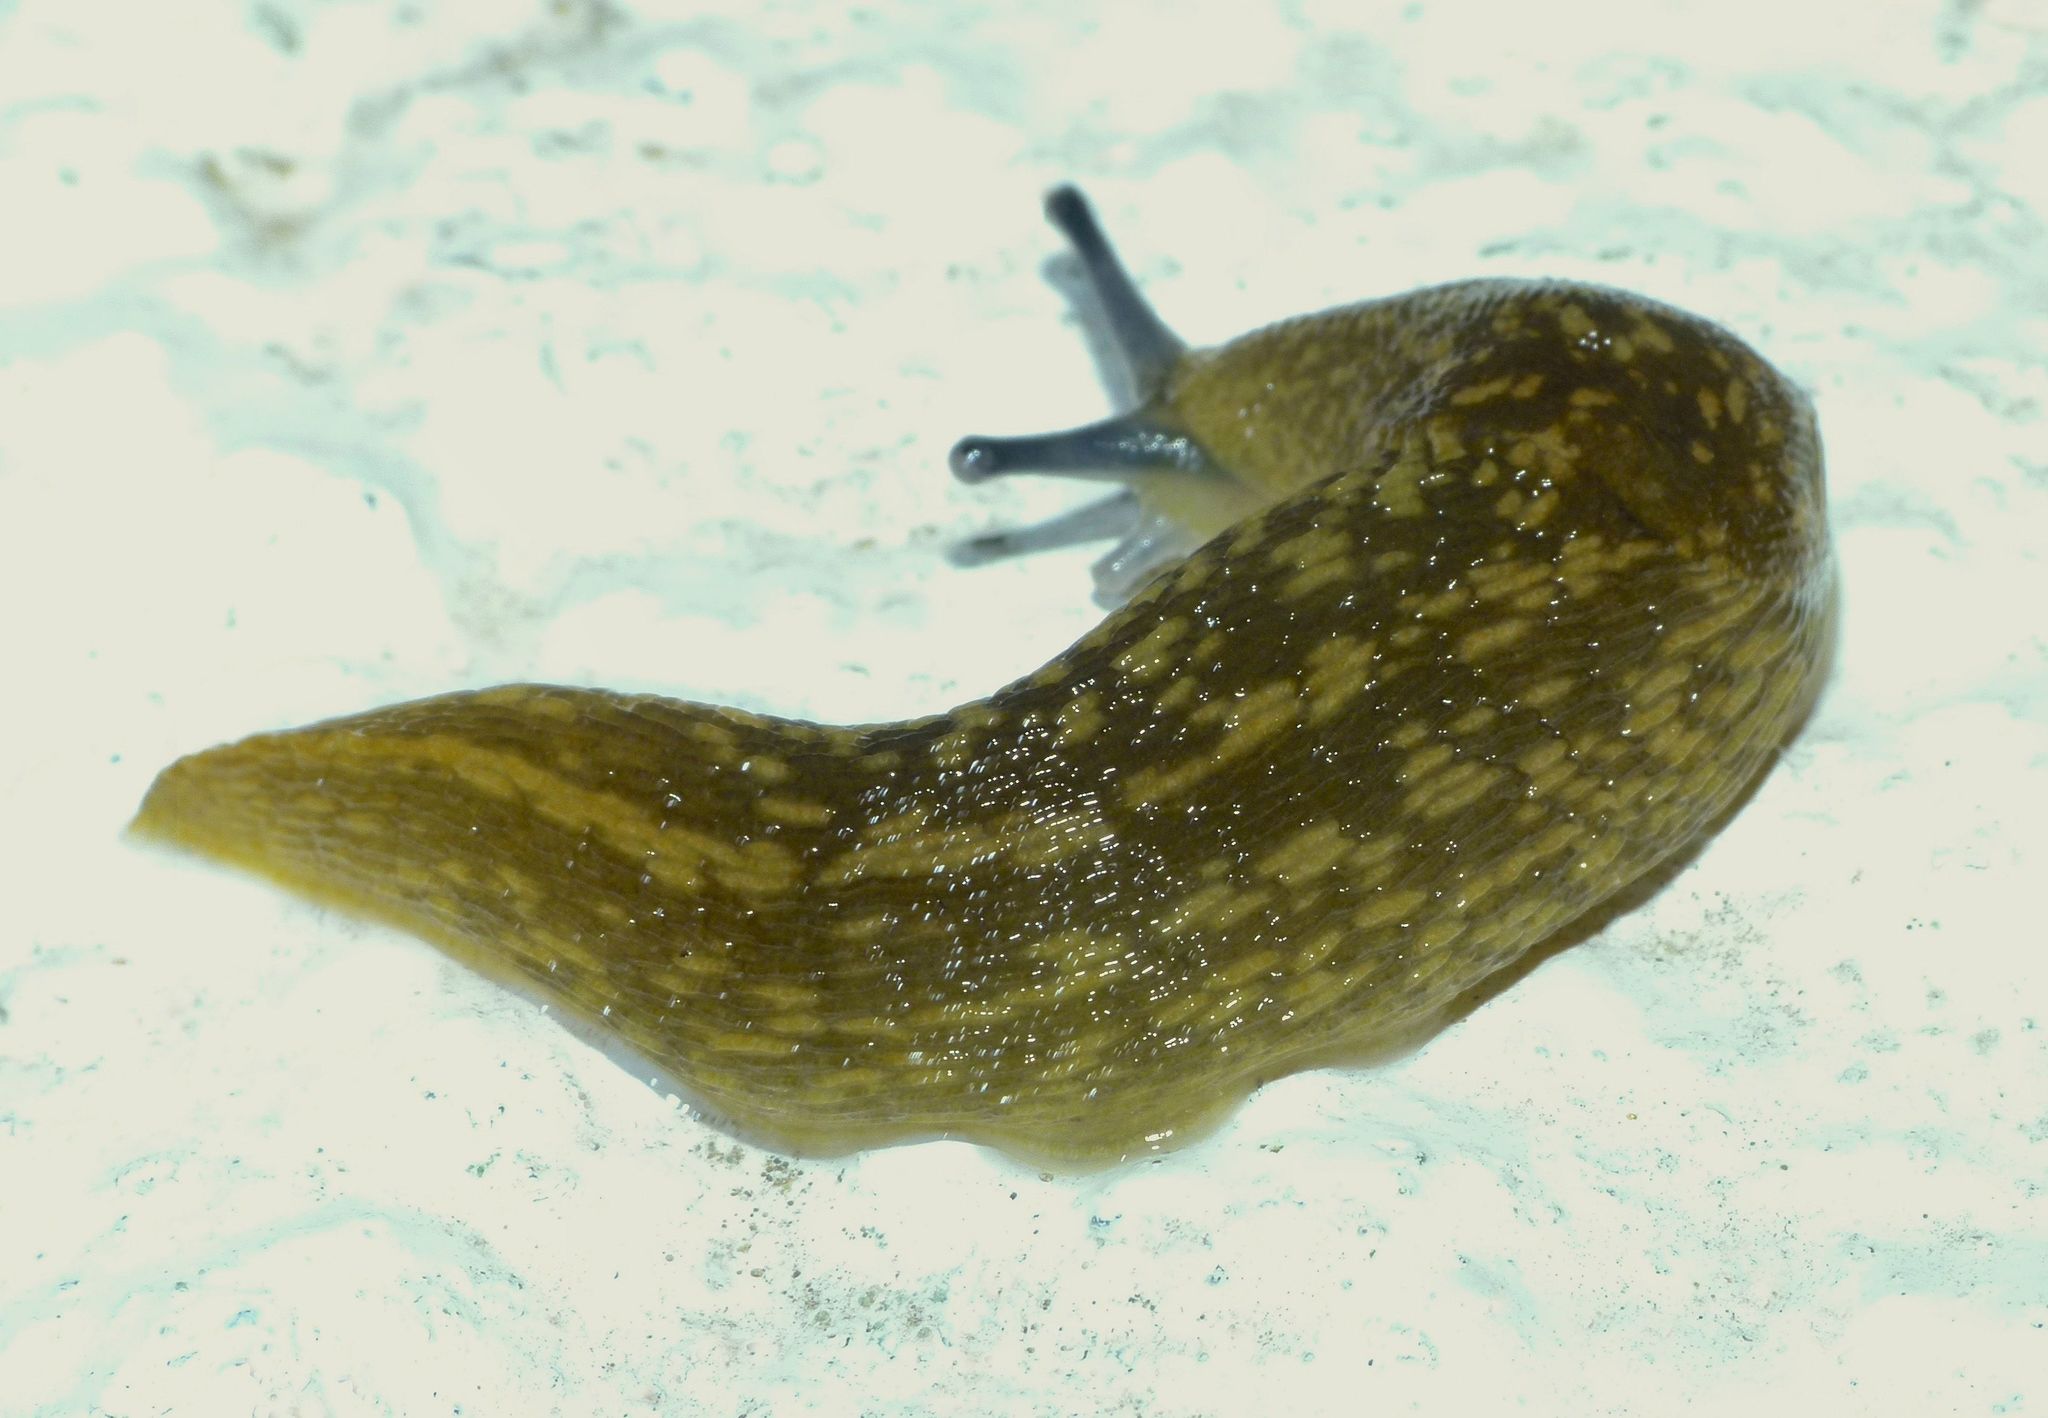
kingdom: Animalia
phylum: Mollusca
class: Gastropoda
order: Stylommatophora
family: Limacidae
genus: Limacus
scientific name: Limacus flavus
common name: Yellow gardenslug
